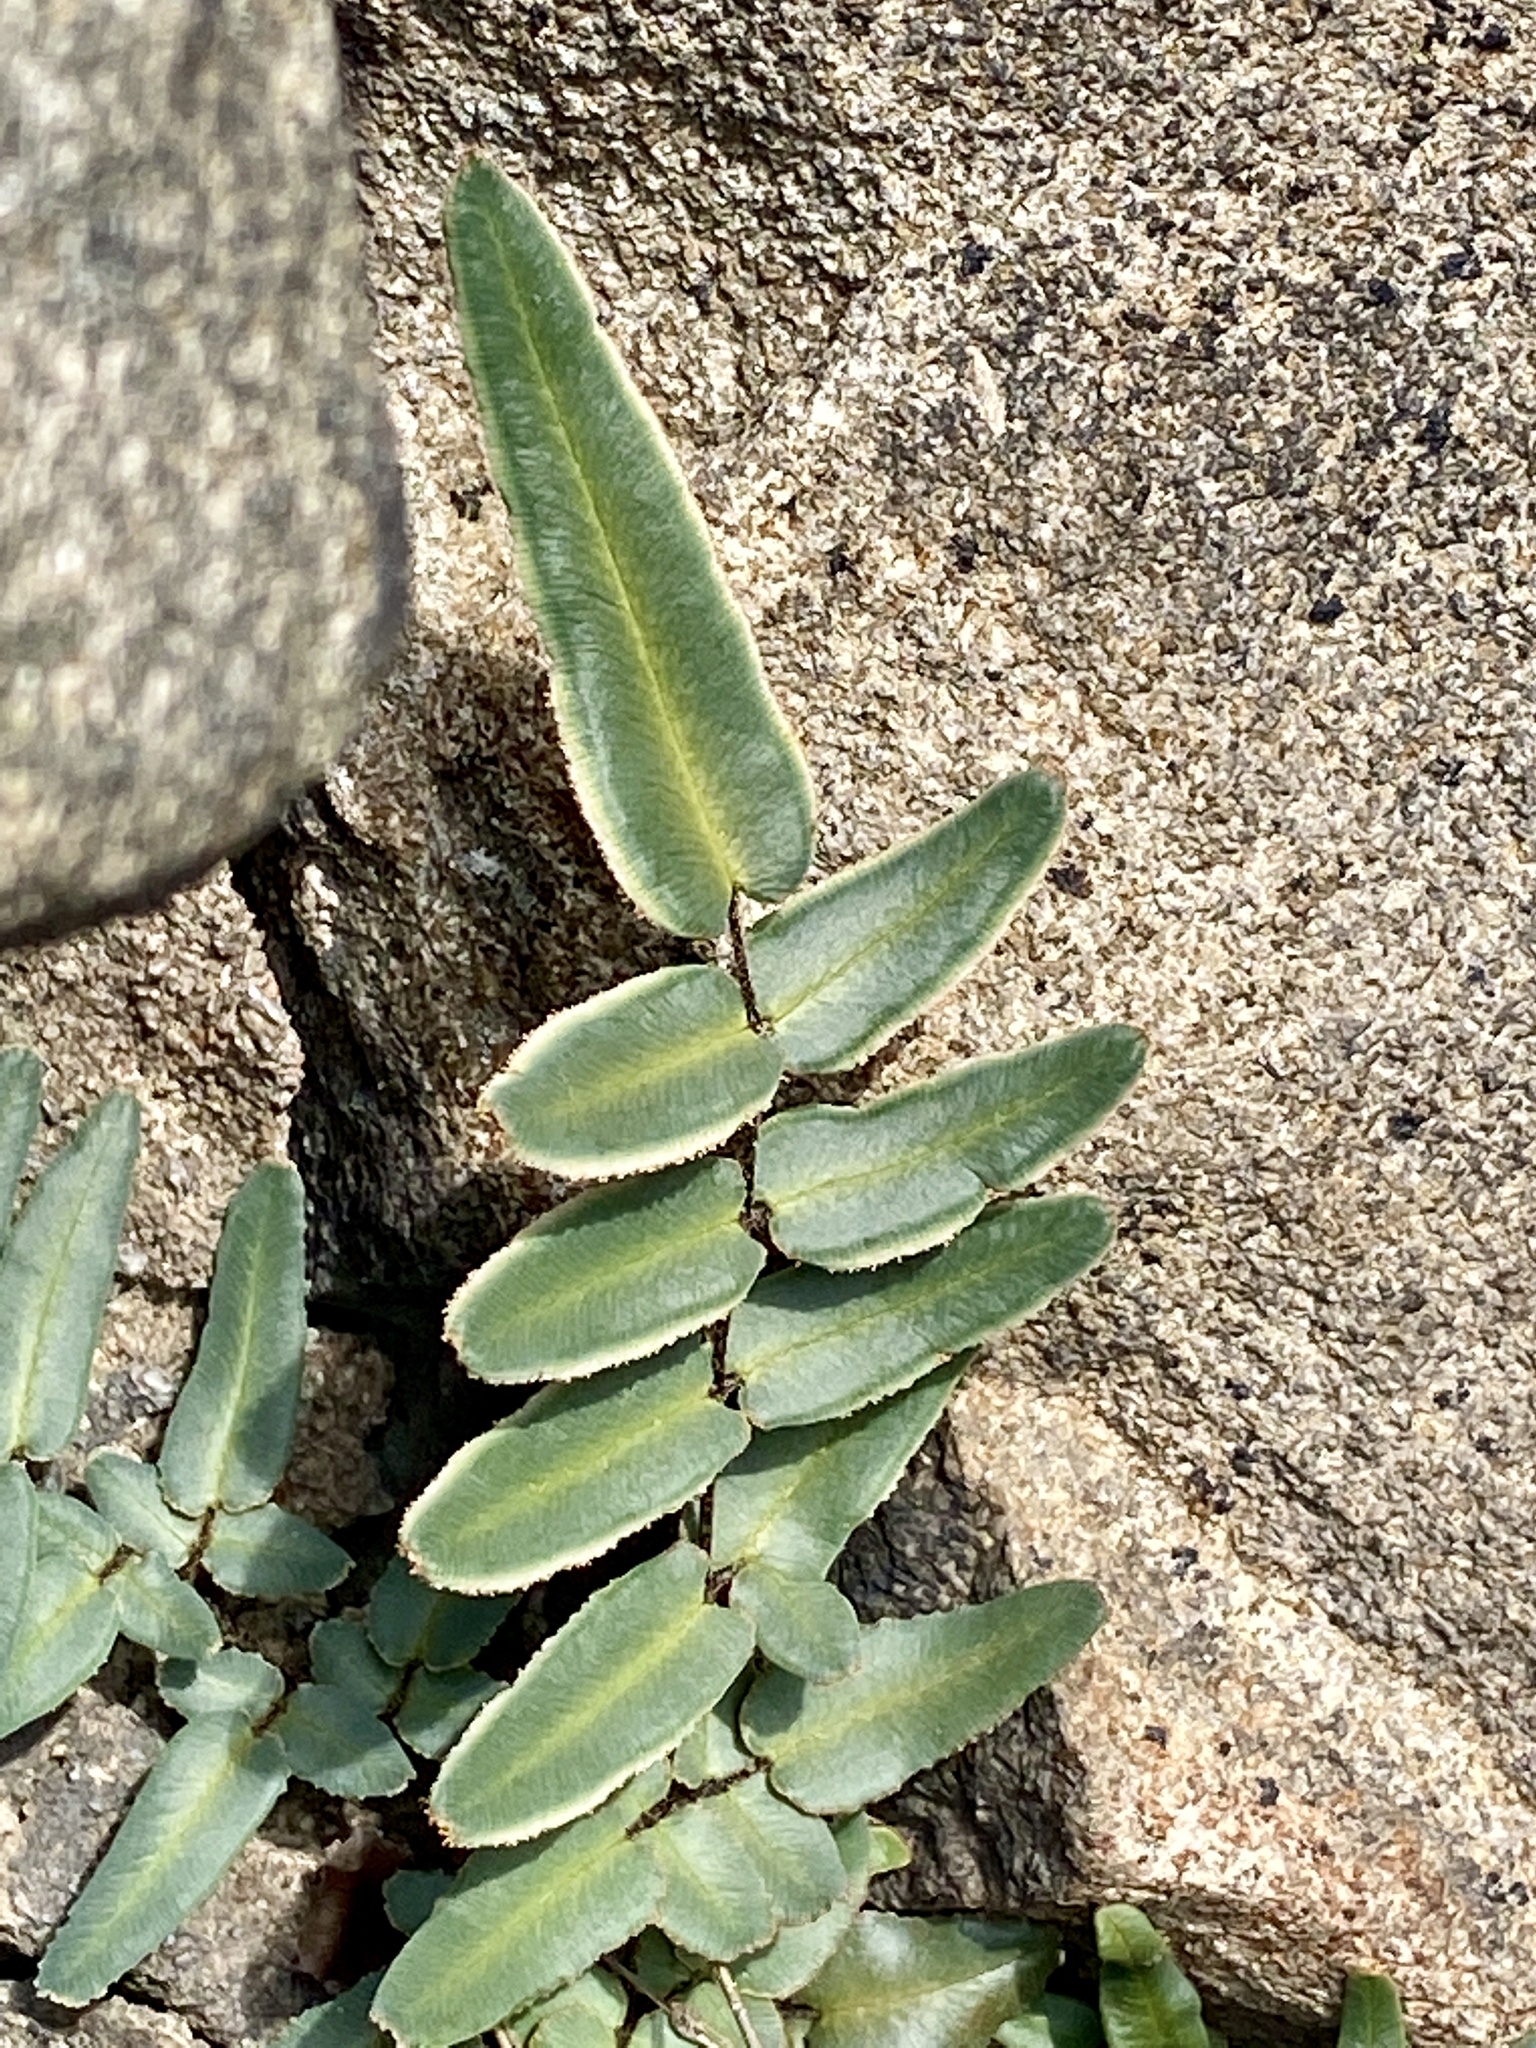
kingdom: Plantae
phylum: Tracheophyta
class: Polypodiopsida
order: Polypodiales
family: Pteridaceae
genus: Pellaea
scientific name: Pellaea atropurpurea
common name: Hairy cliffbrake
